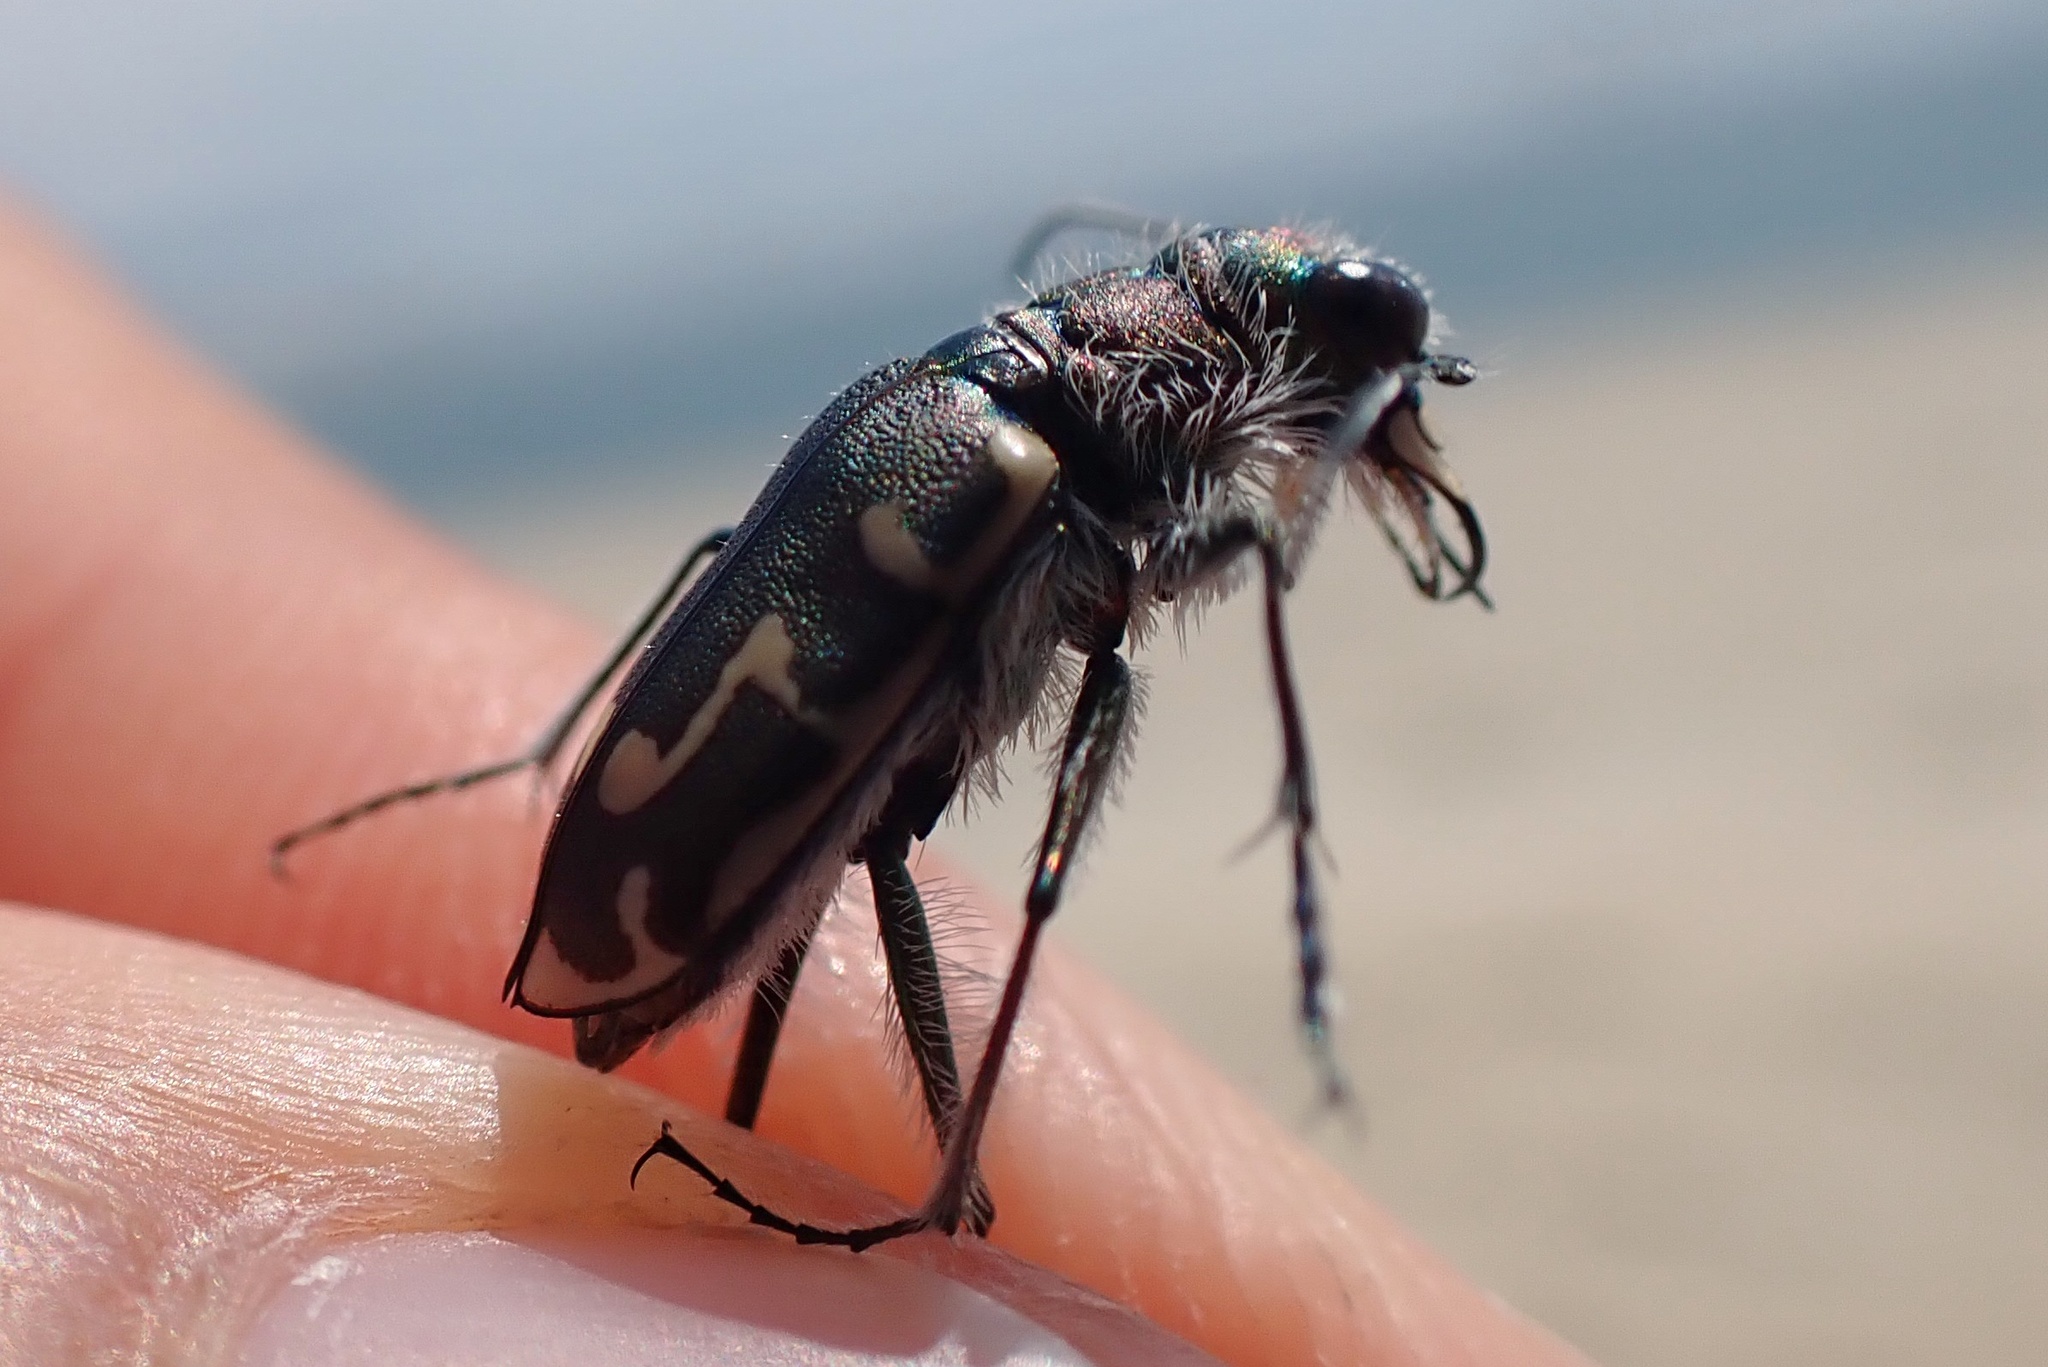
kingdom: Animalia
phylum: Arthropoda
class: Insecta
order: Coleoptera
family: Carabidae
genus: Cicindela
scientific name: Cicindela hirticollis
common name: Hairy-necked tiger beetle
